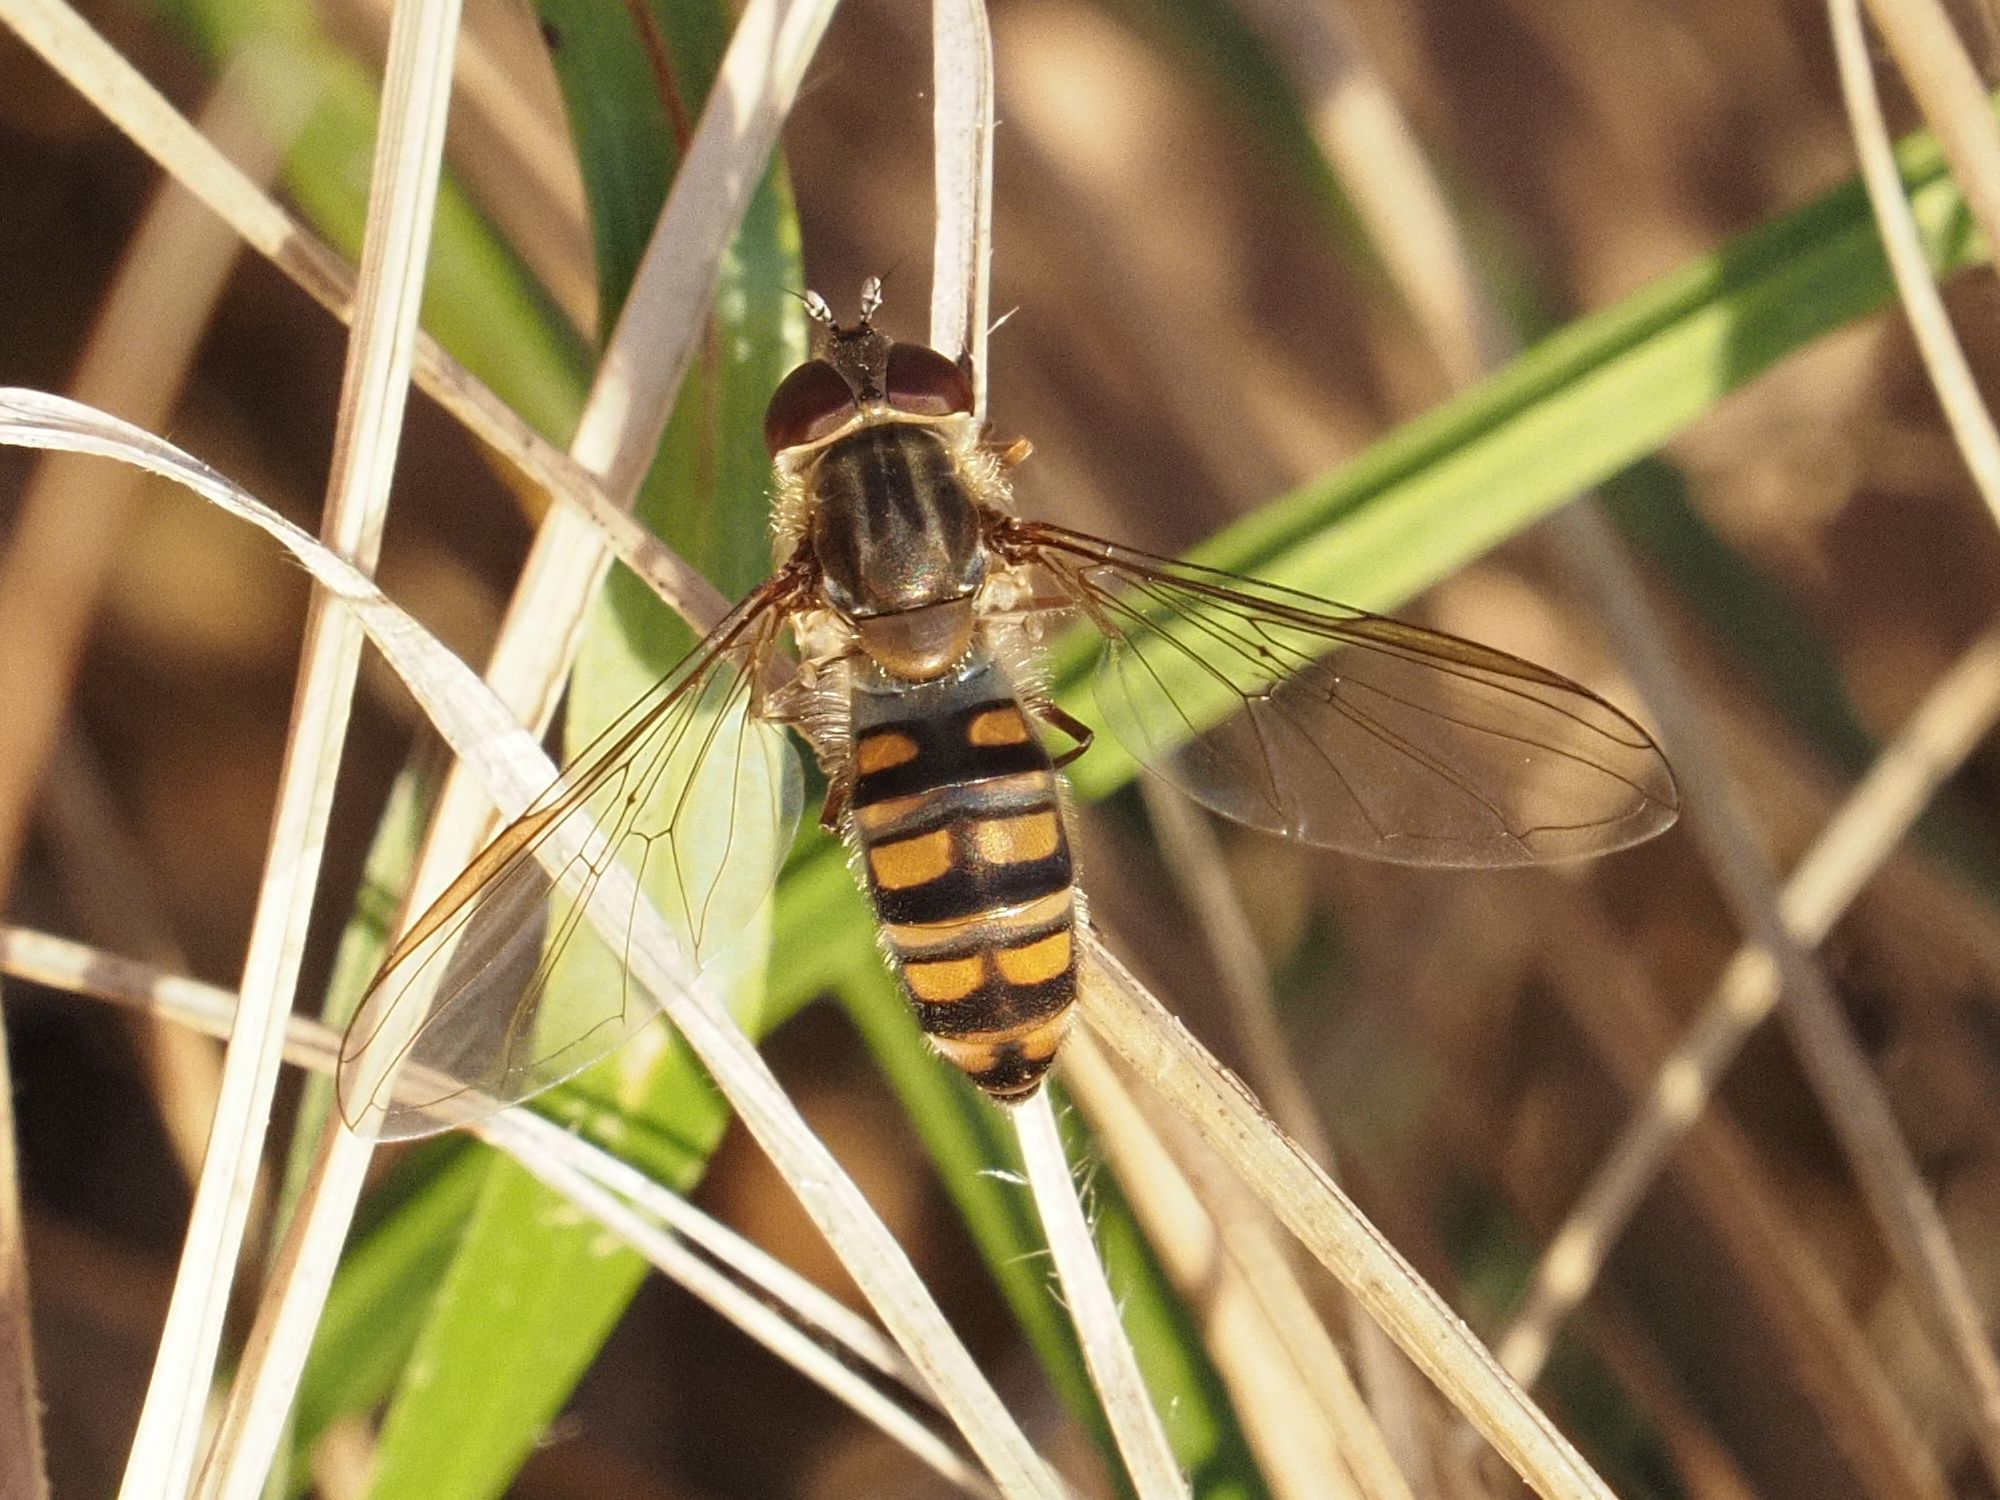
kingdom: Animalia
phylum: Arthropoda
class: Insecta
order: Diptera
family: Syrphidae
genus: Episyrphus
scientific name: Episyrphus balteatus
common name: Marmalade hoverfly
